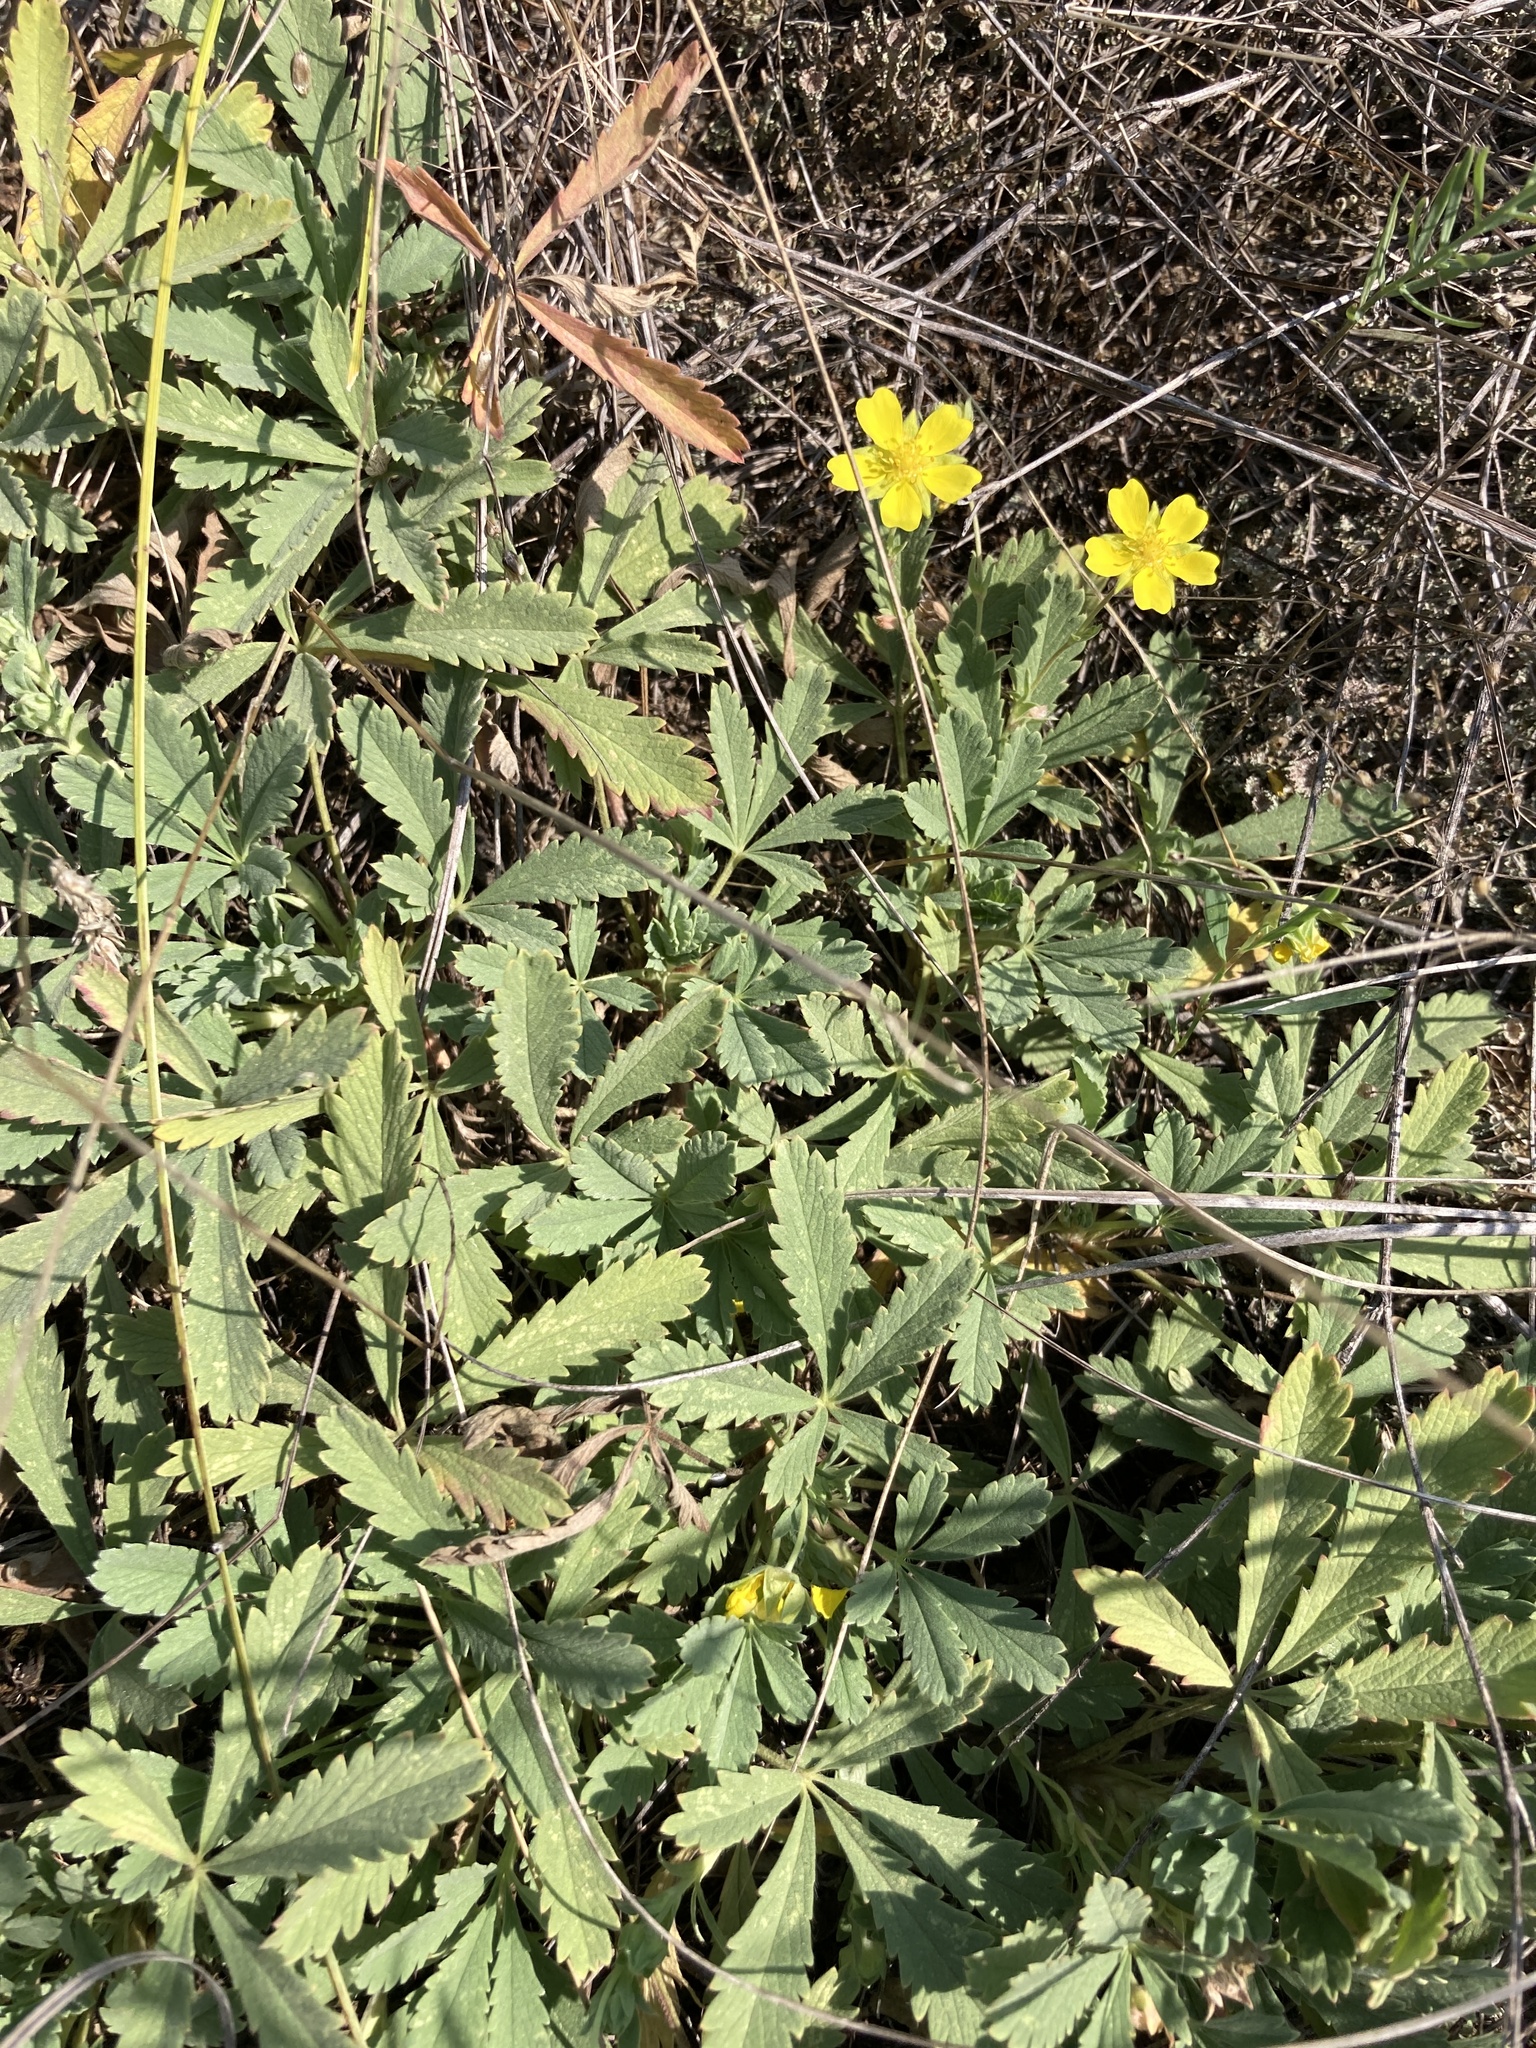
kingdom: Plantae
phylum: Tracheophyta
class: Magnoliopsida
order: Rosales
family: Rosaceae
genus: Potentilla
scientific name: Potentilla incana
